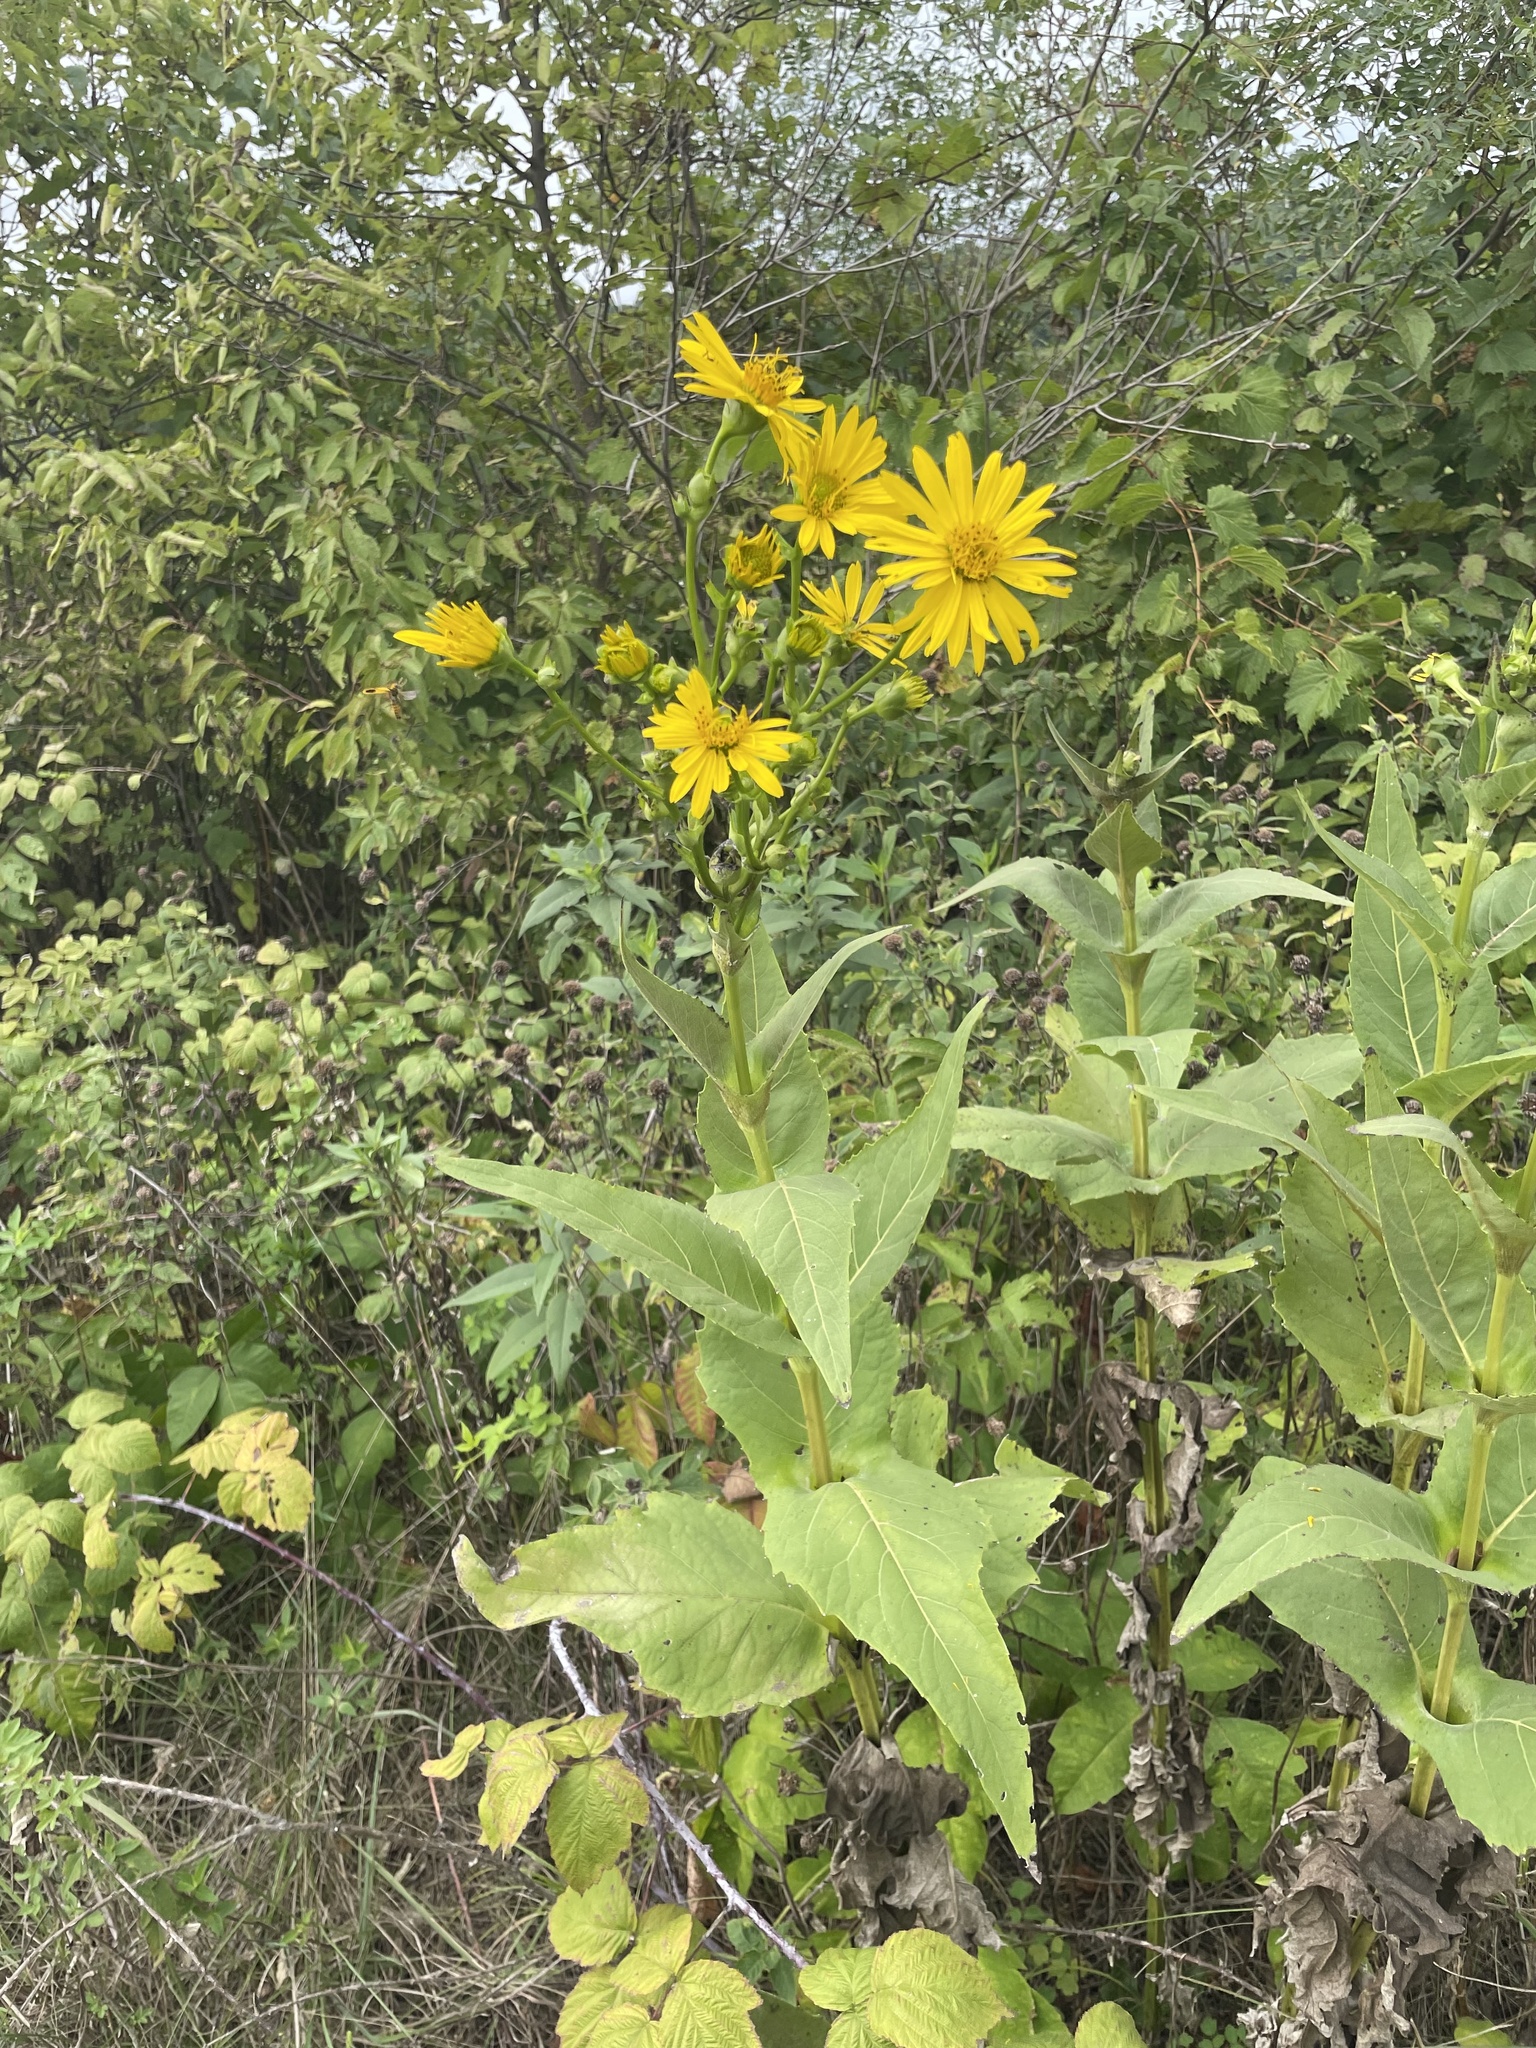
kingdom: Plantae
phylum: Tracheophyta
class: Magnoliopsida
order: Asterales
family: Asteraceae
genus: Silphium
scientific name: Silphium perfoliatum
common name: Cup-plant
